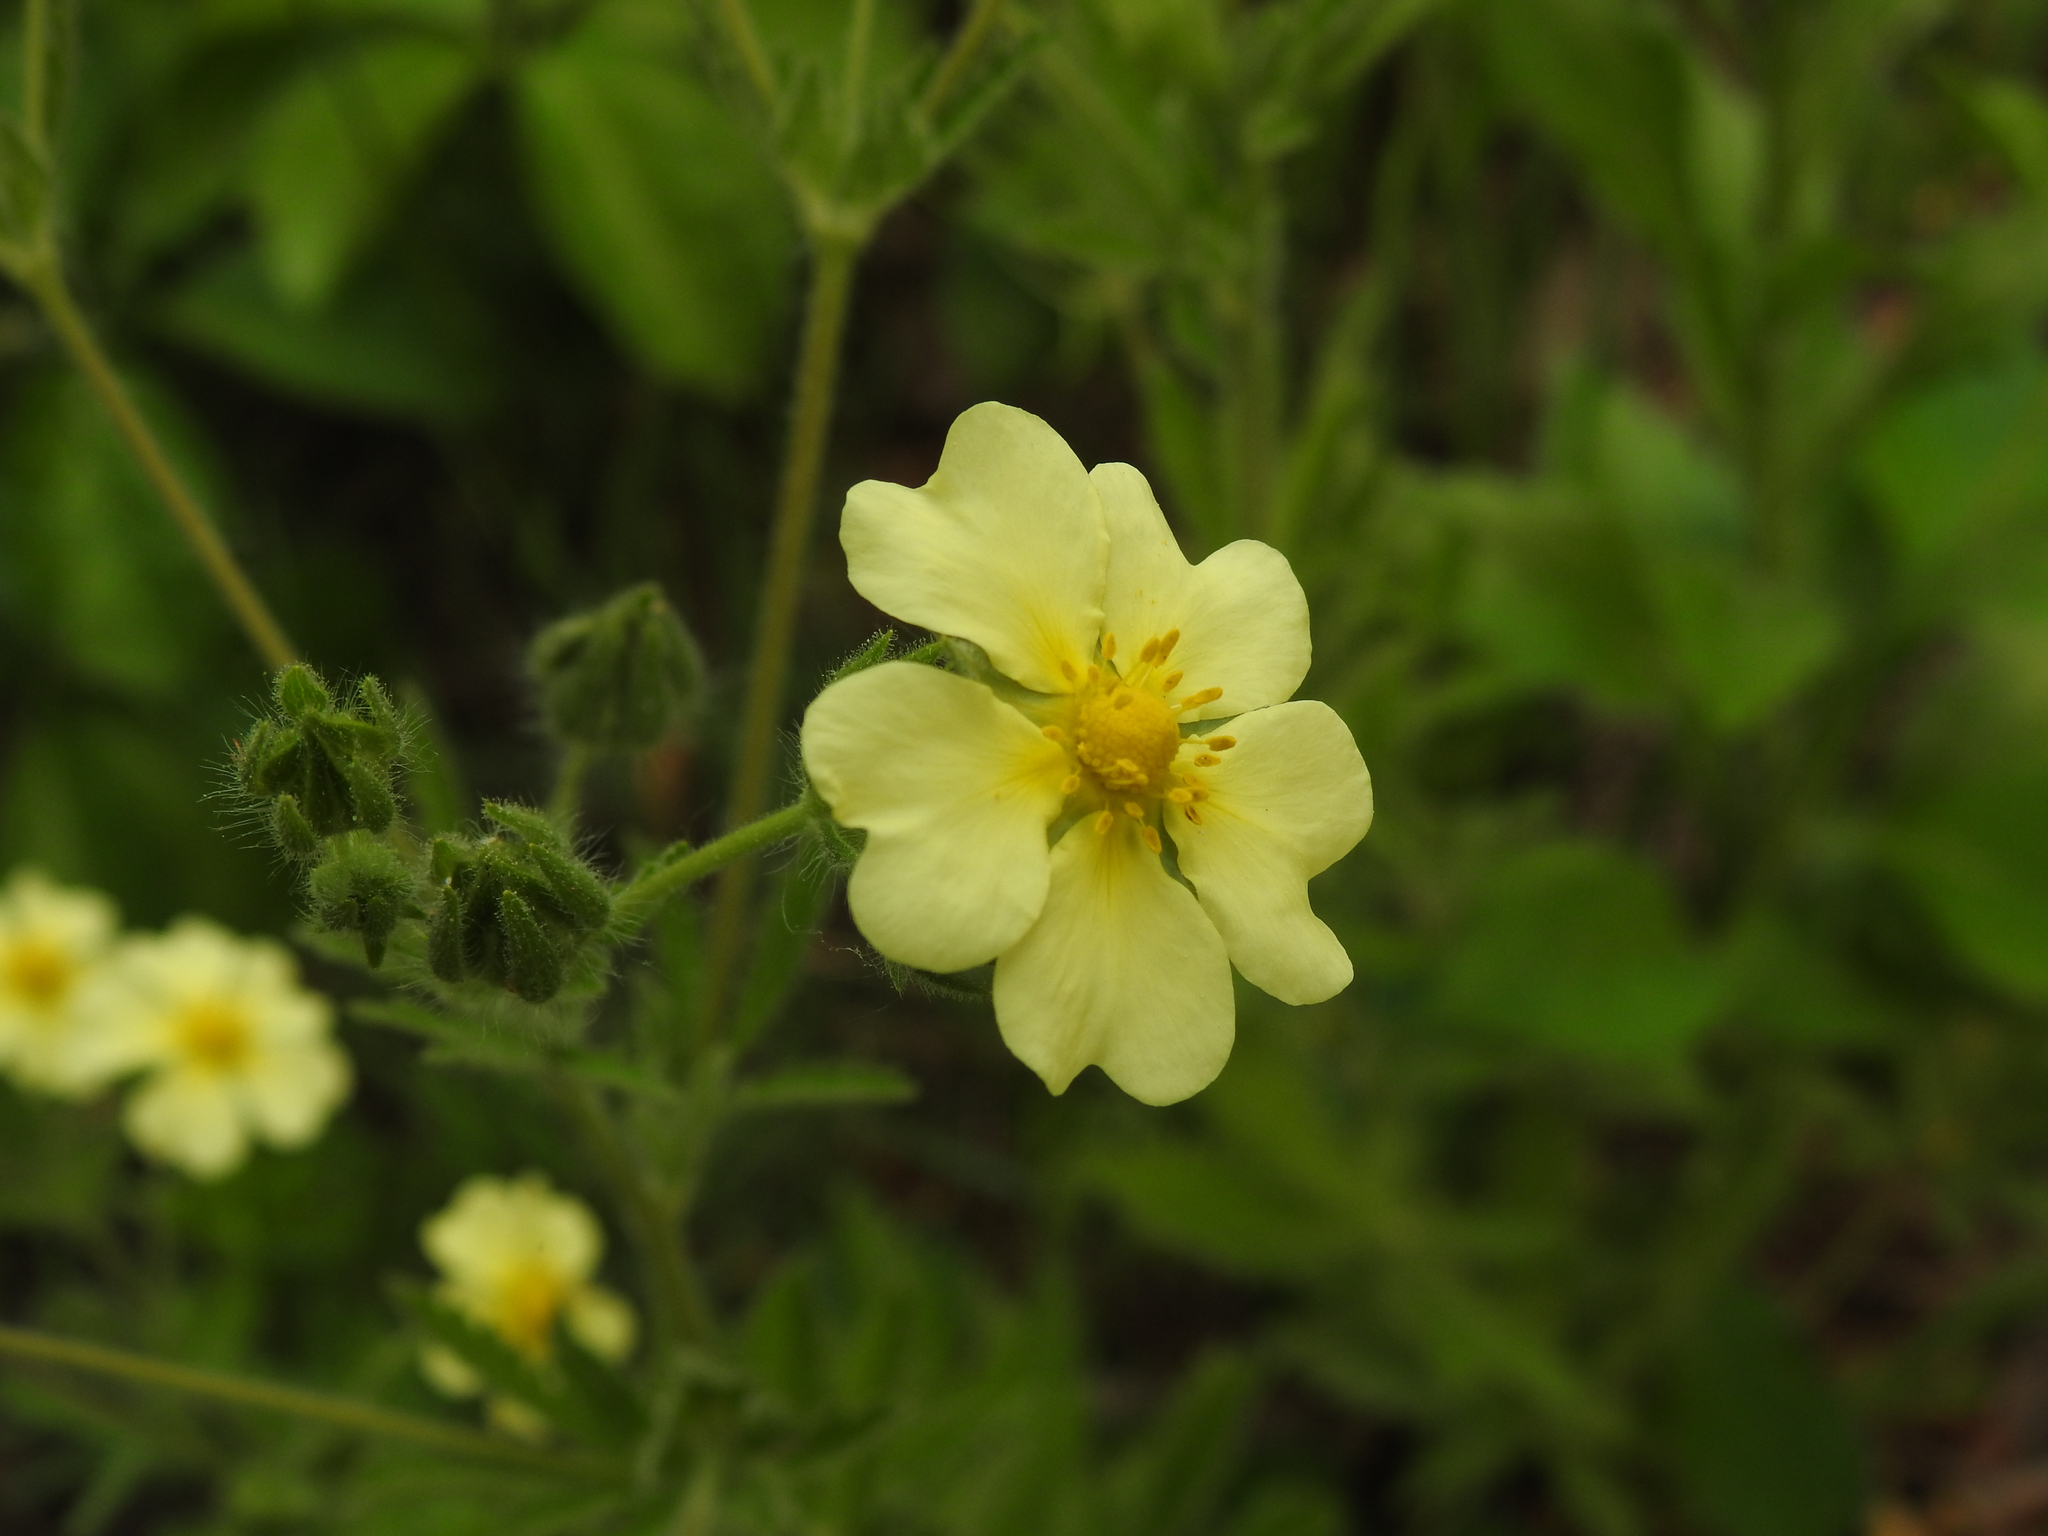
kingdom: Plantae
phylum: Tracheophyta
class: Magnoliopsida
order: Rosales
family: Rosaceae
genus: Potentilla
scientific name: Potentilla recta
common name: Sulphur cinquefoil
